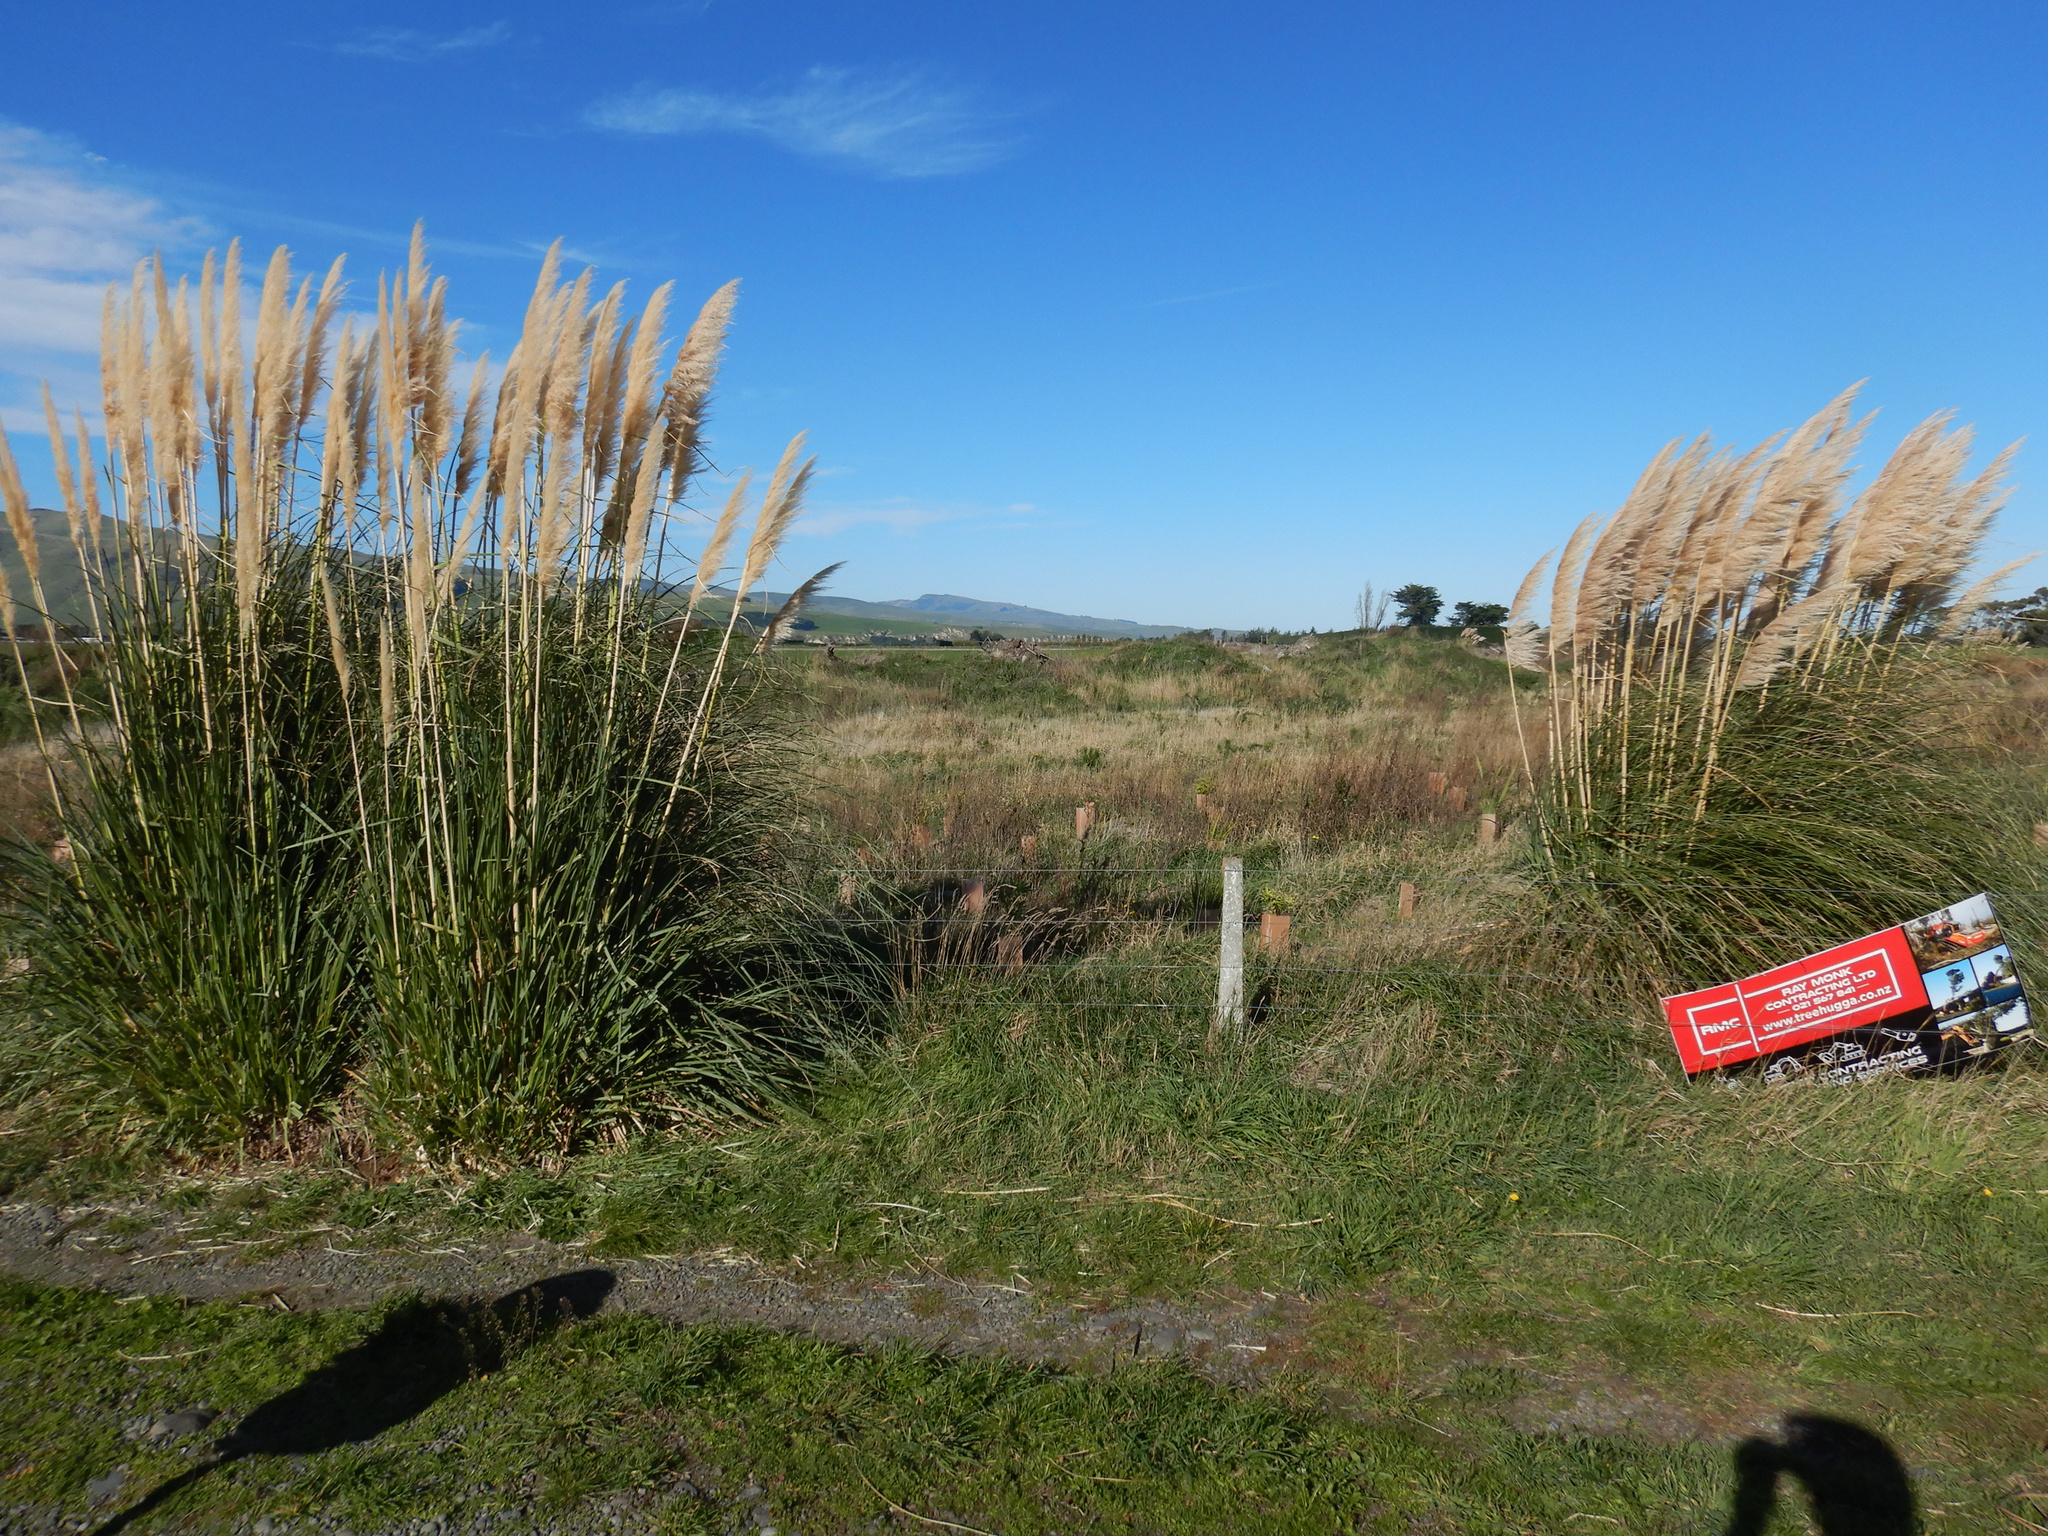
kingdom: Plantae
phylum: Tracheophyta
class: Liliopsida
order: Poales
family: Poaceae
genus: Cortaderia
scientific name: Cortaderia selloana
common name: Uruguayan pampas grass
